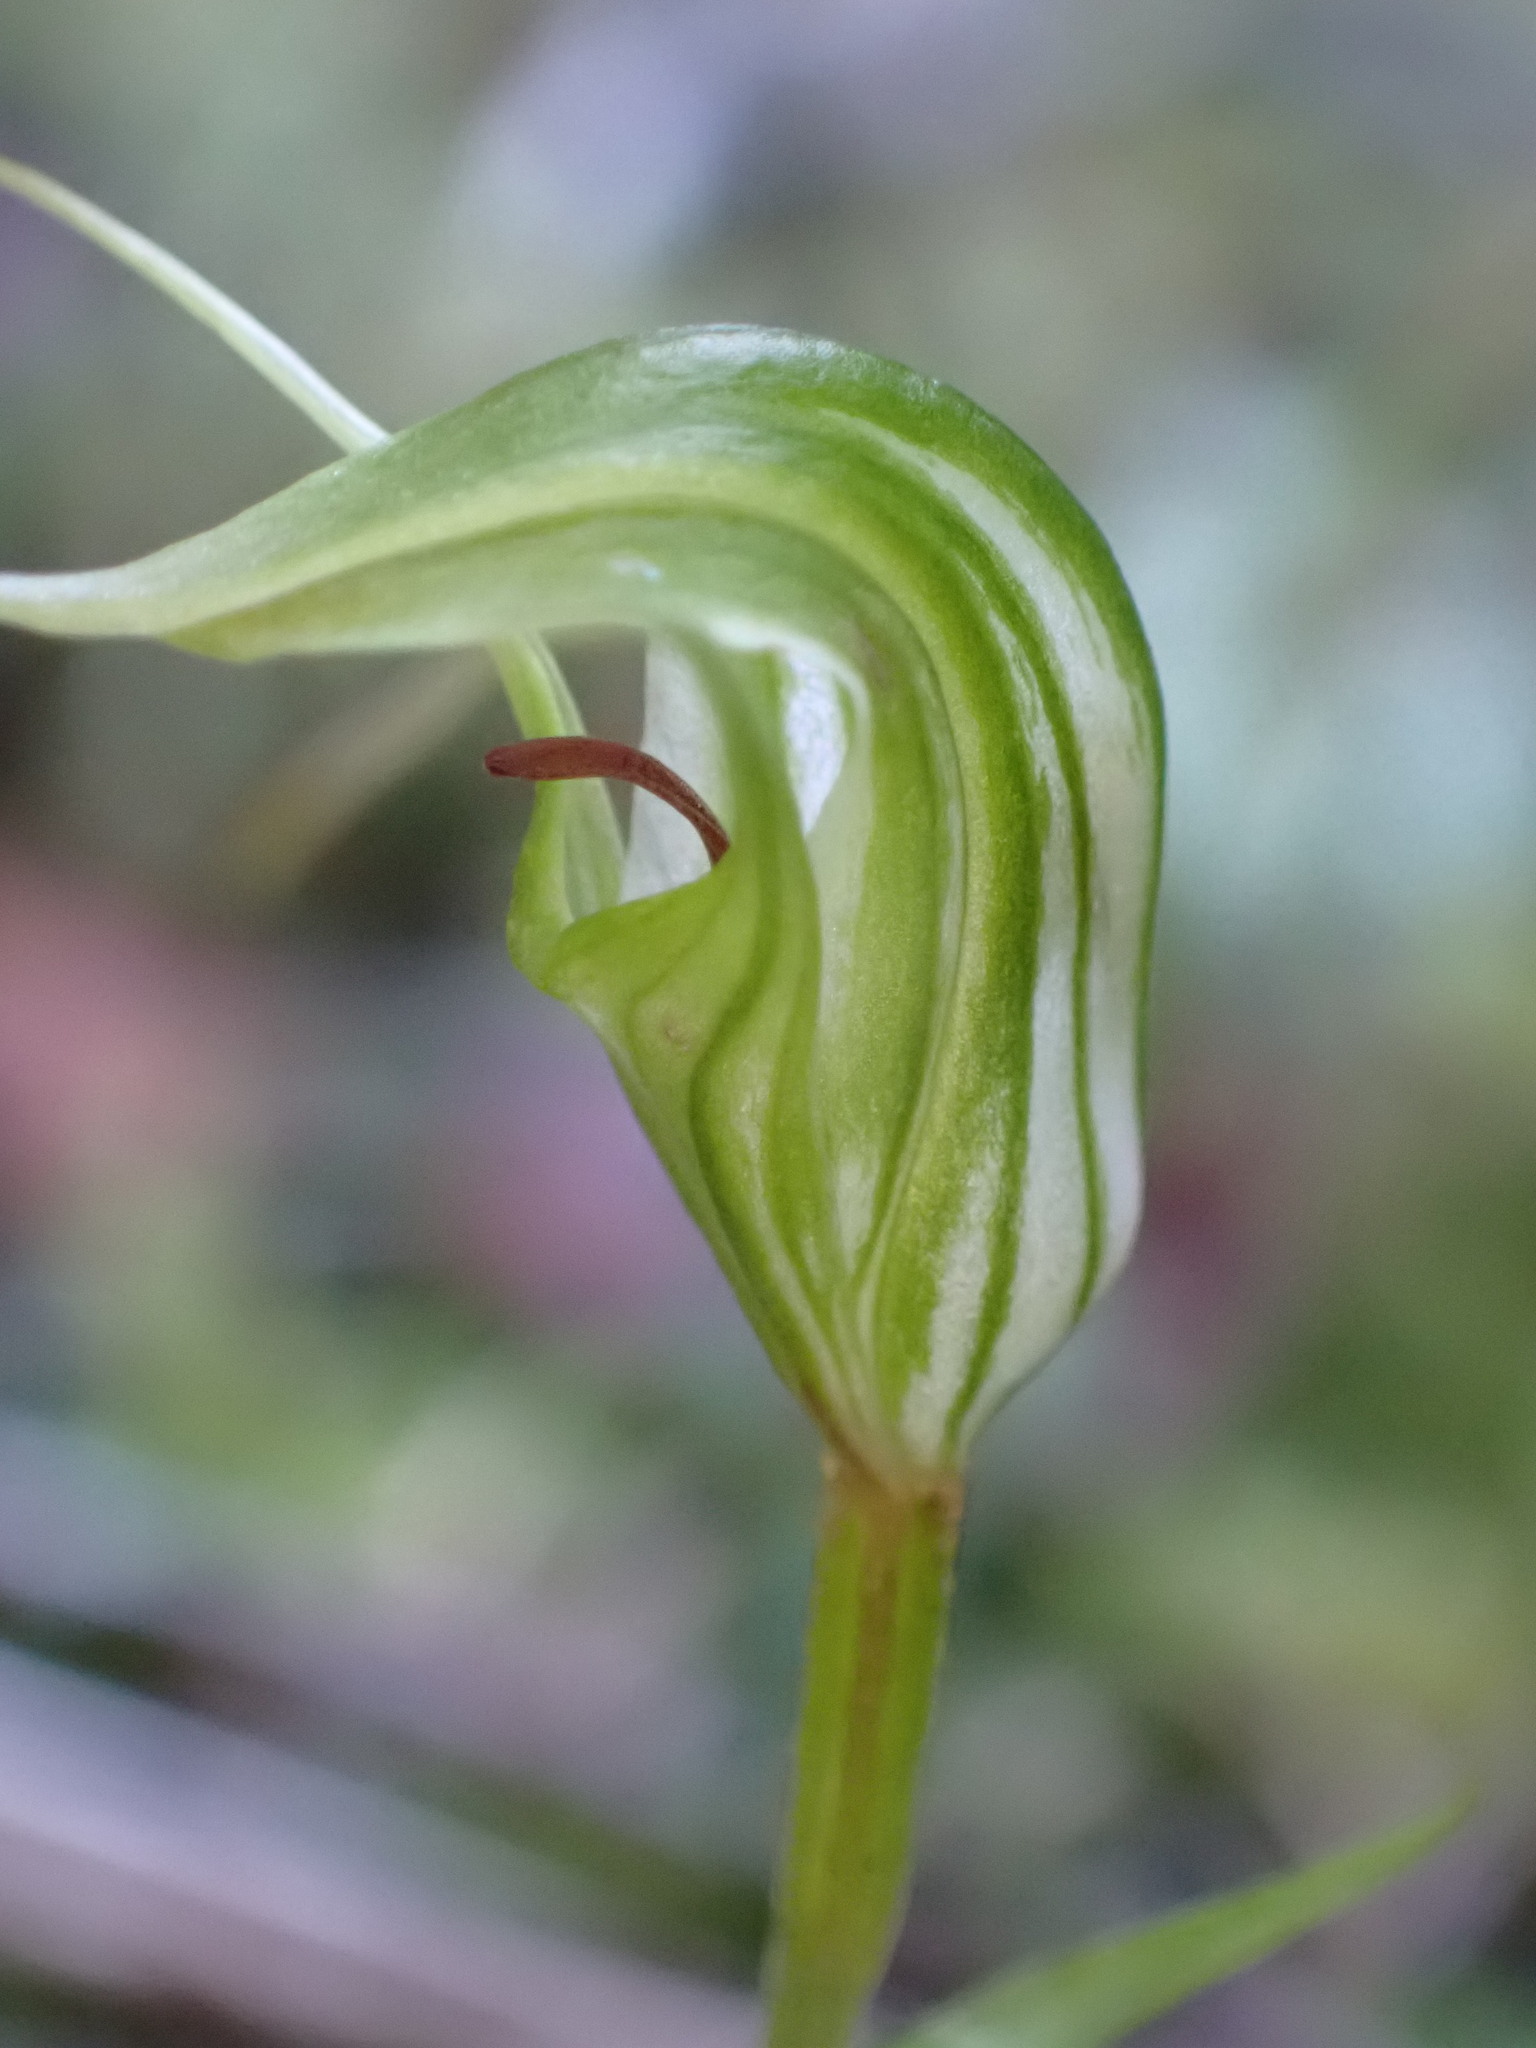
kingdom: Plantae
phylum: Tracheophyta
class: Liliopsida
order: Asparagales
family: Orchidaceae
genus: Pterostylis
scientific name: Pterostylis trullifolia
